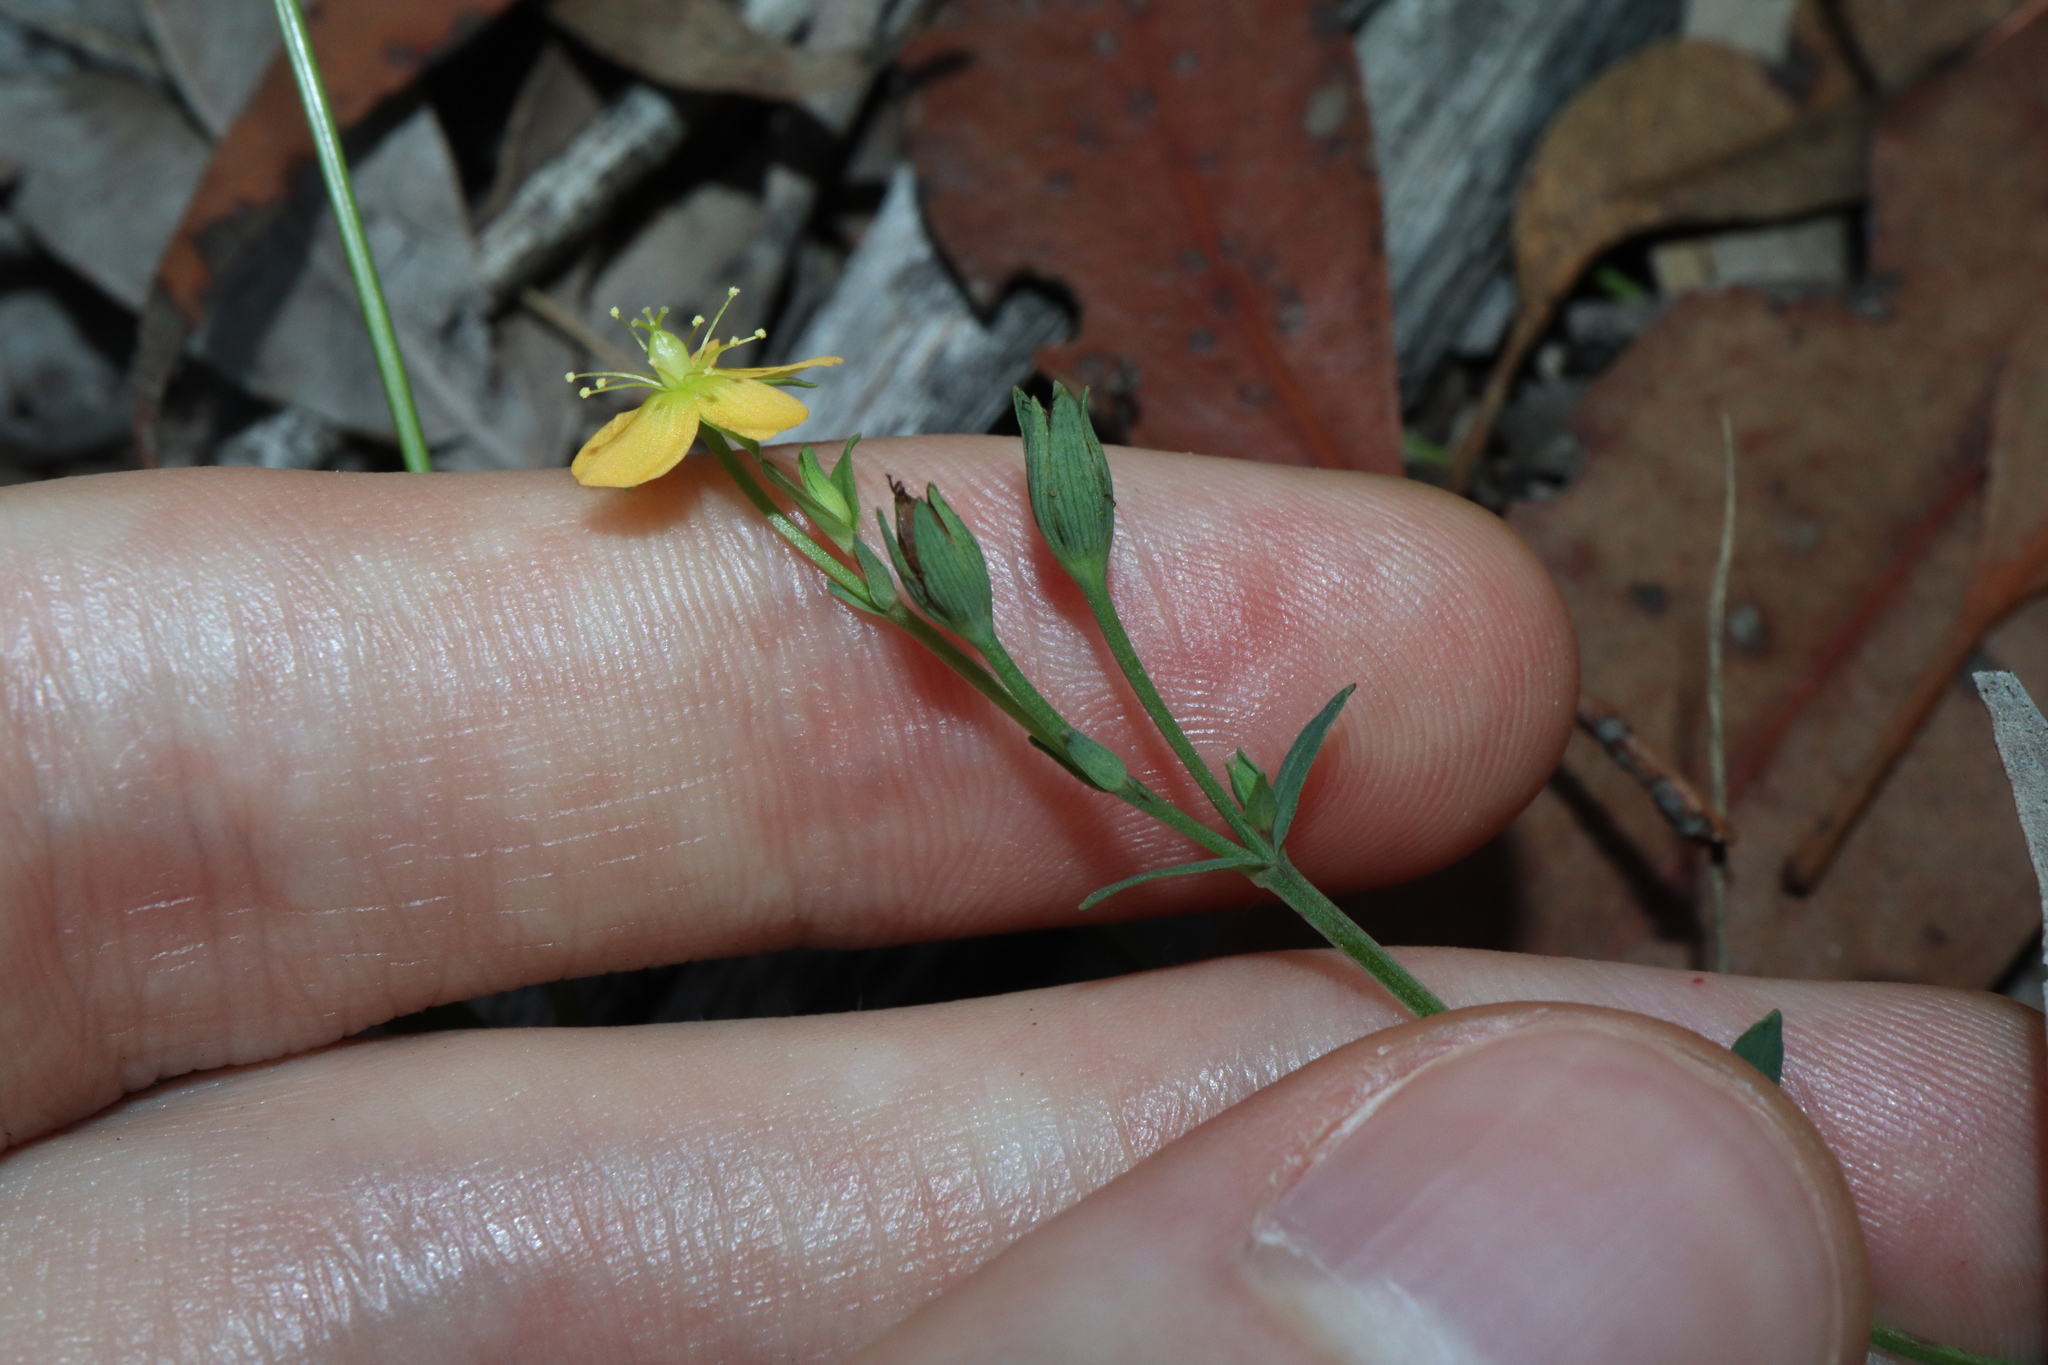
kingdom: Plantae
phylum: Tracheophyta
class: Magnoliopsida
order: Malpighiales
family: Hypericaceae
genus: Hypericum
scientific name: Hypericum gramineum
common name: Grassy st. johnswort
